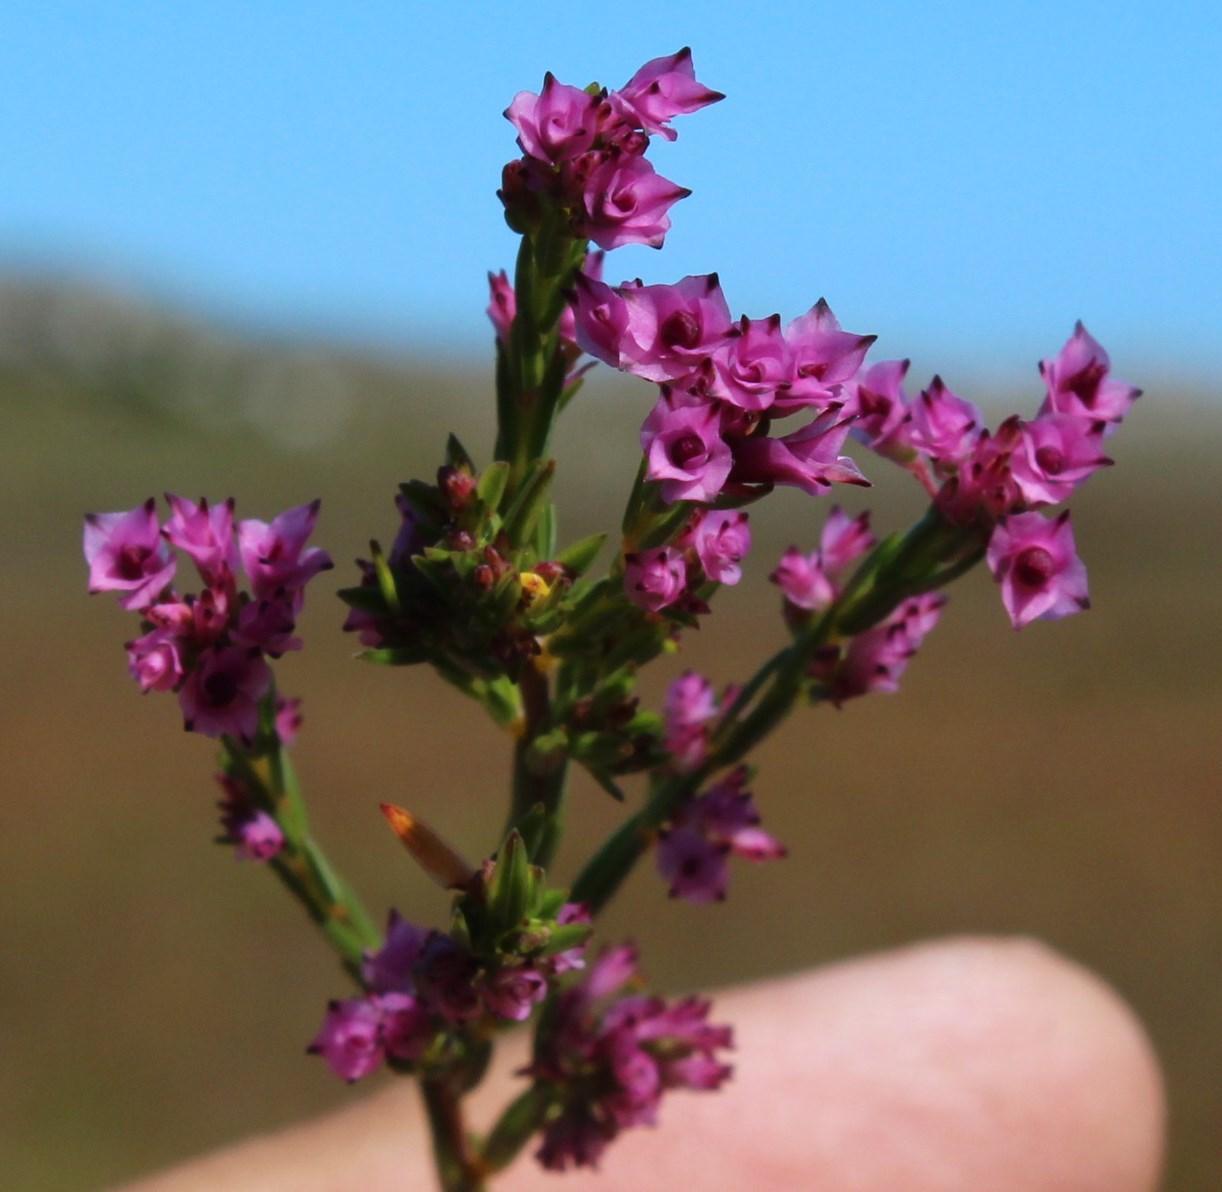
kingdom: Plantae
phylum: Tracheophyta
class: Magnoliopsida
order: Ericales
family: Ericaceae
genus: Erica
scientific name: Erica corifolia
